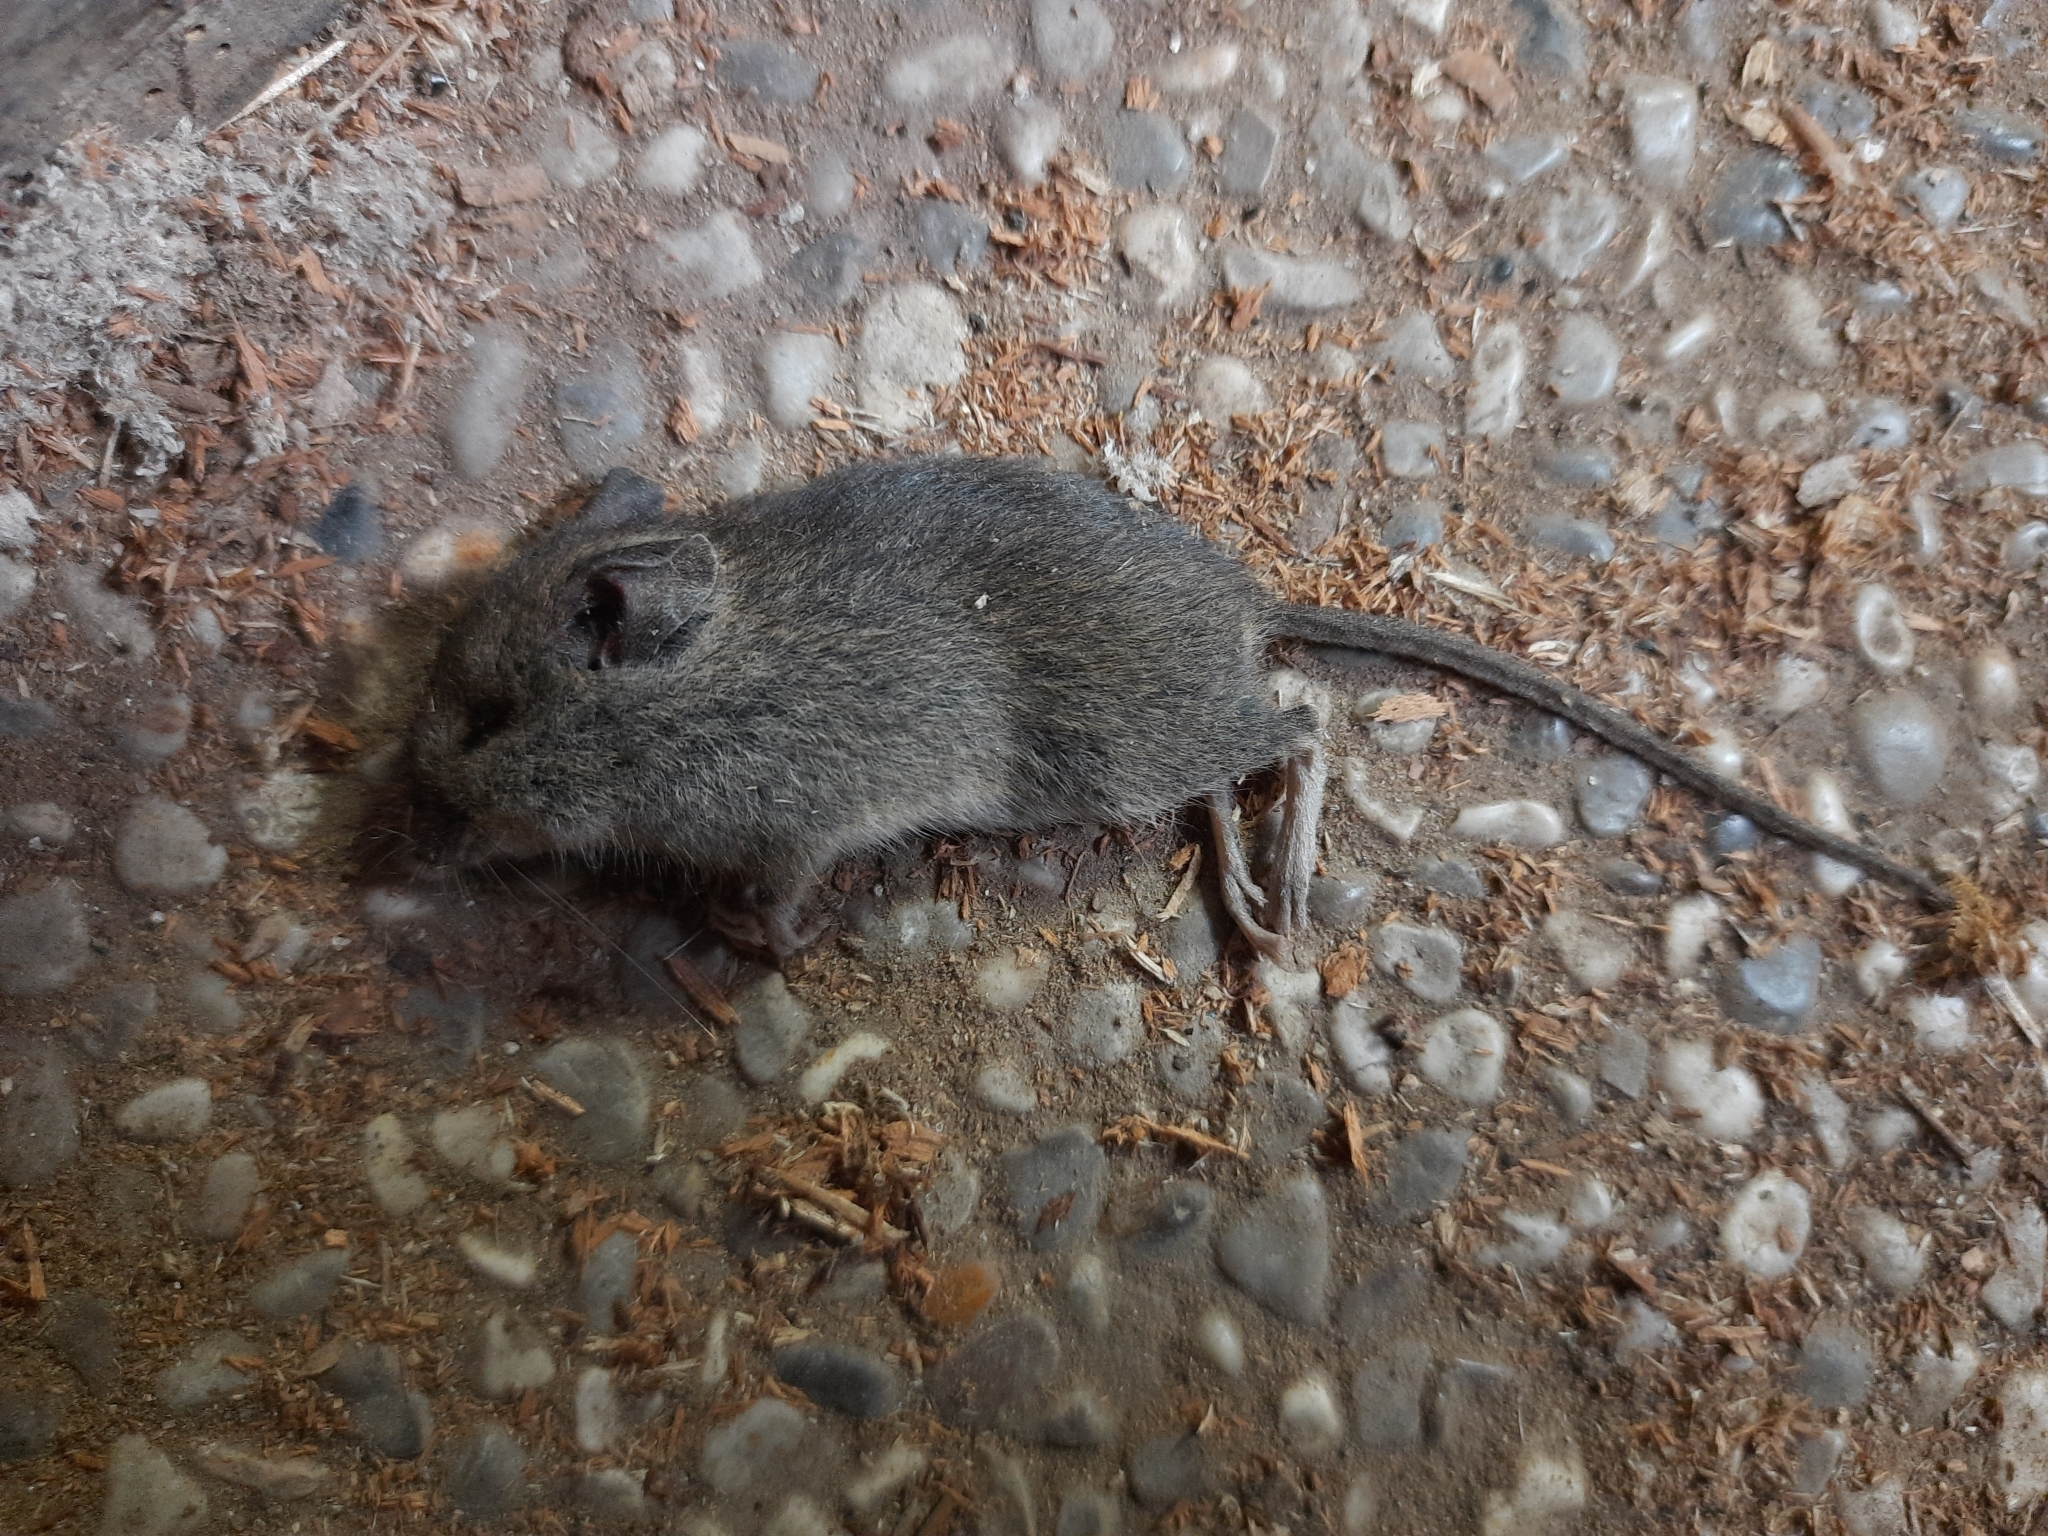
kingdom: Animalia
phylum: Chordata
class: Mammalia
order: Rodentia
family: Muridae
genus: Mus
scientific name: Mus musculus
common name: House mouse
